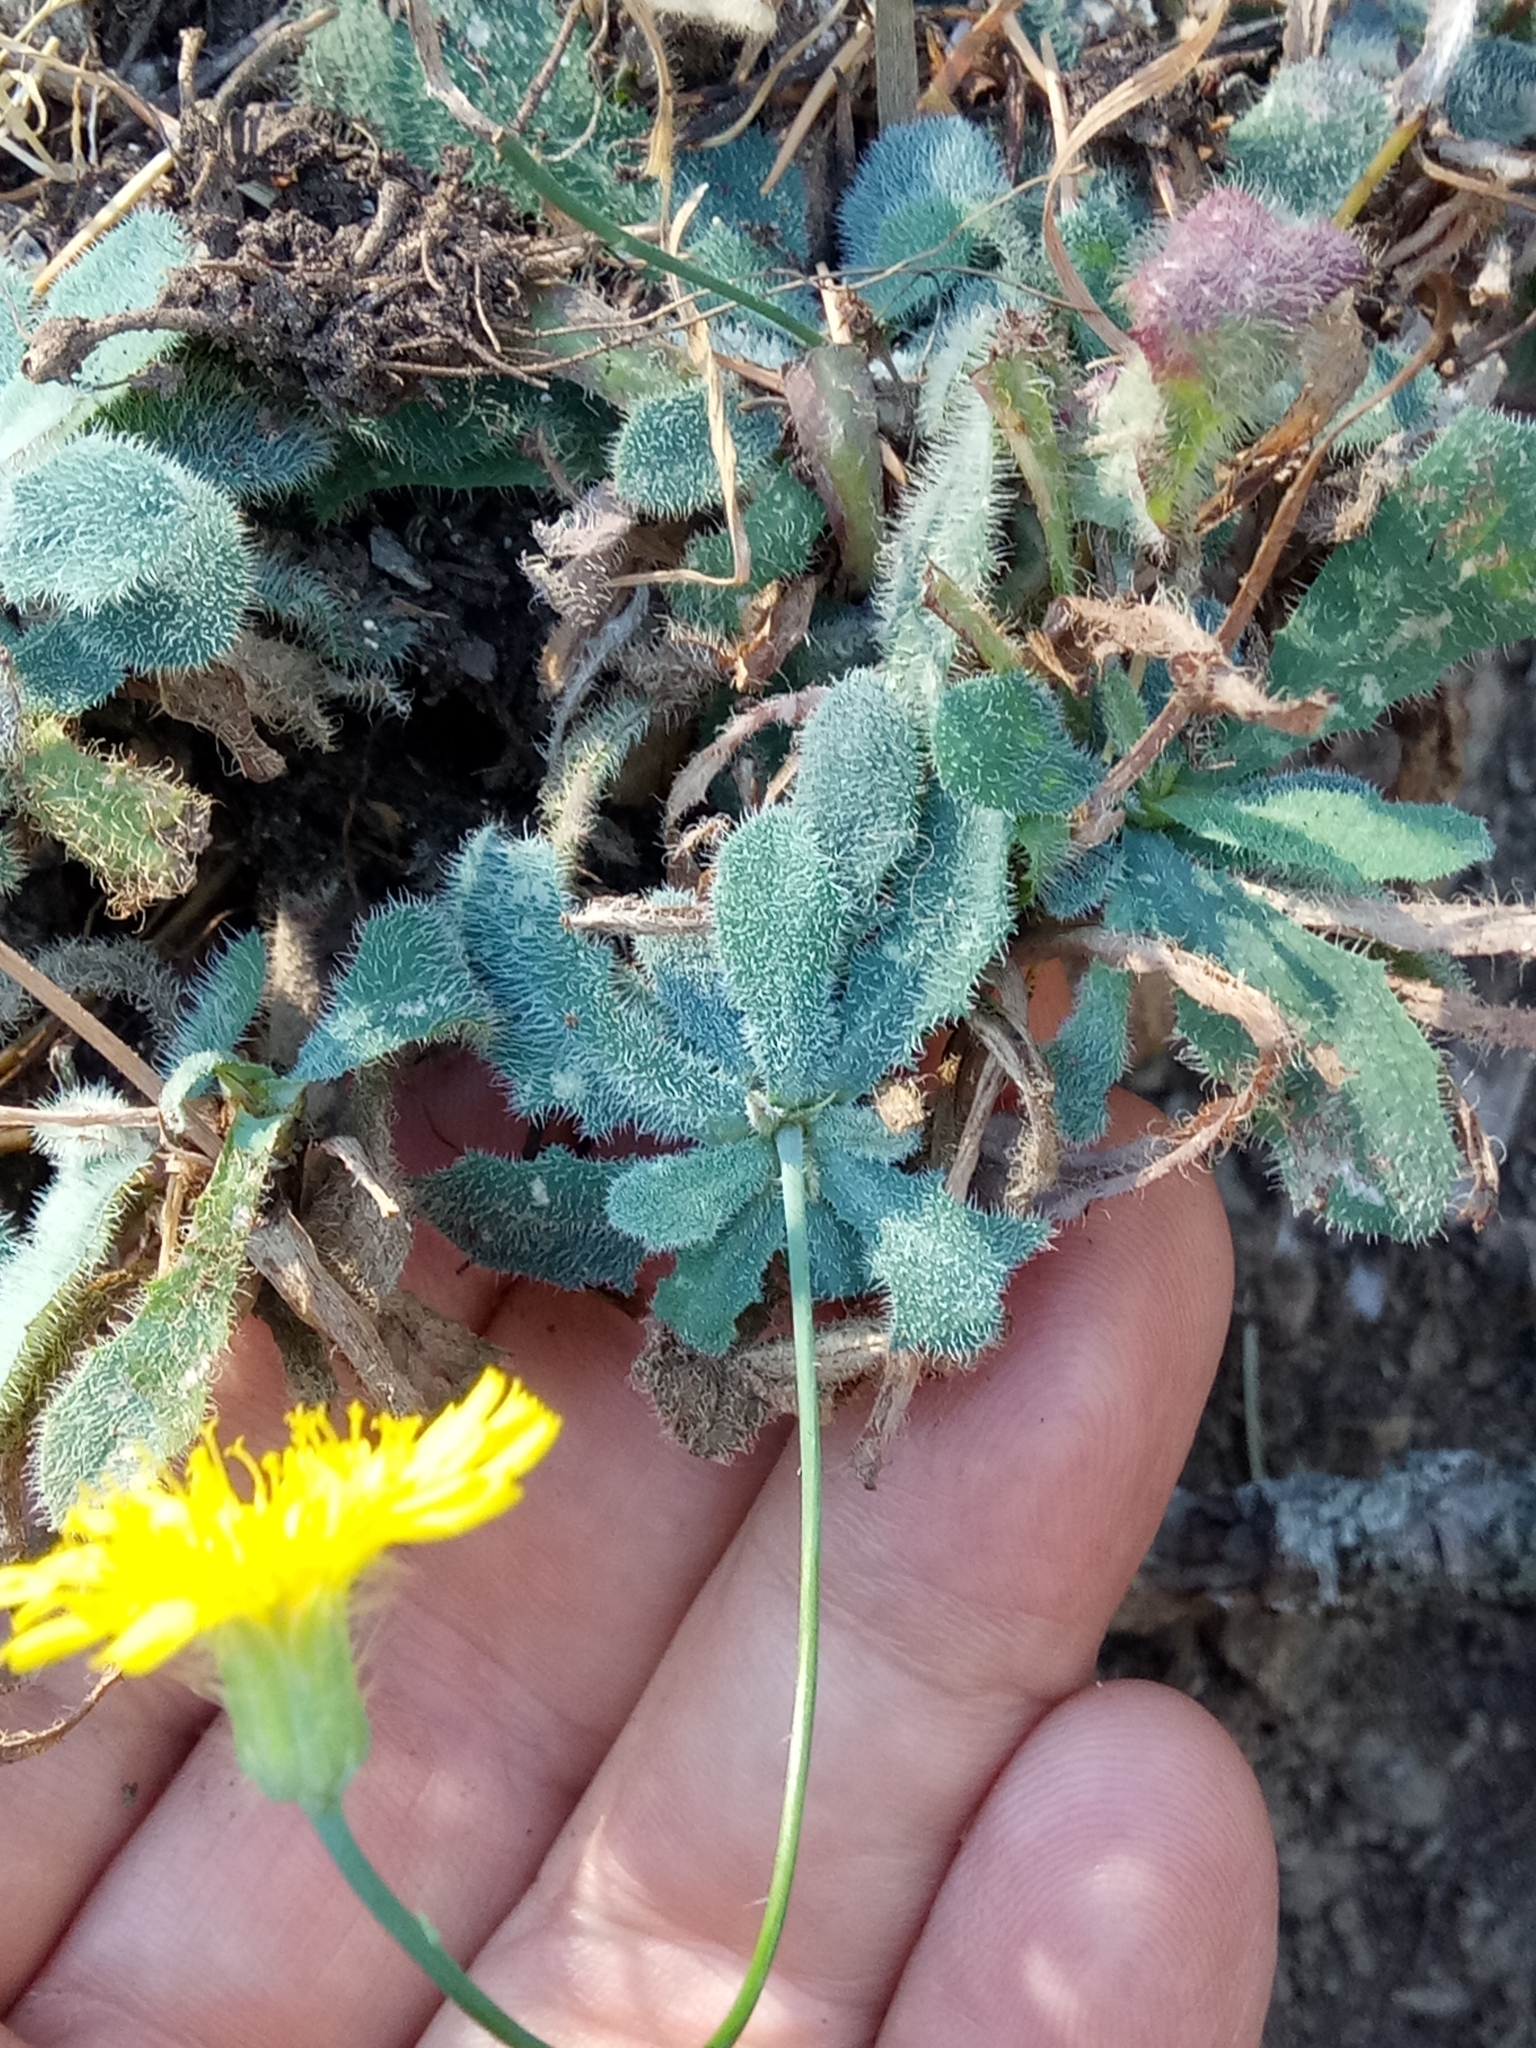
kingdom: Plantae
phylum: Tracheophyta
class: Magnoliopsida
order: Asterales
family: Asteraceae
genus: Achyrophorus
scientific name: Achyrophorus laevigatus
